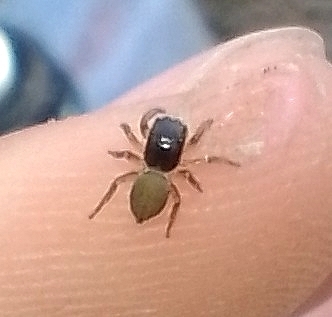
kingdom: Animalia
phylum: Arthropoda
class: Arachnida
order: Araneae
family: Salticidae
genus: Euophrys
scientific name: Euophrys melanoleuca
